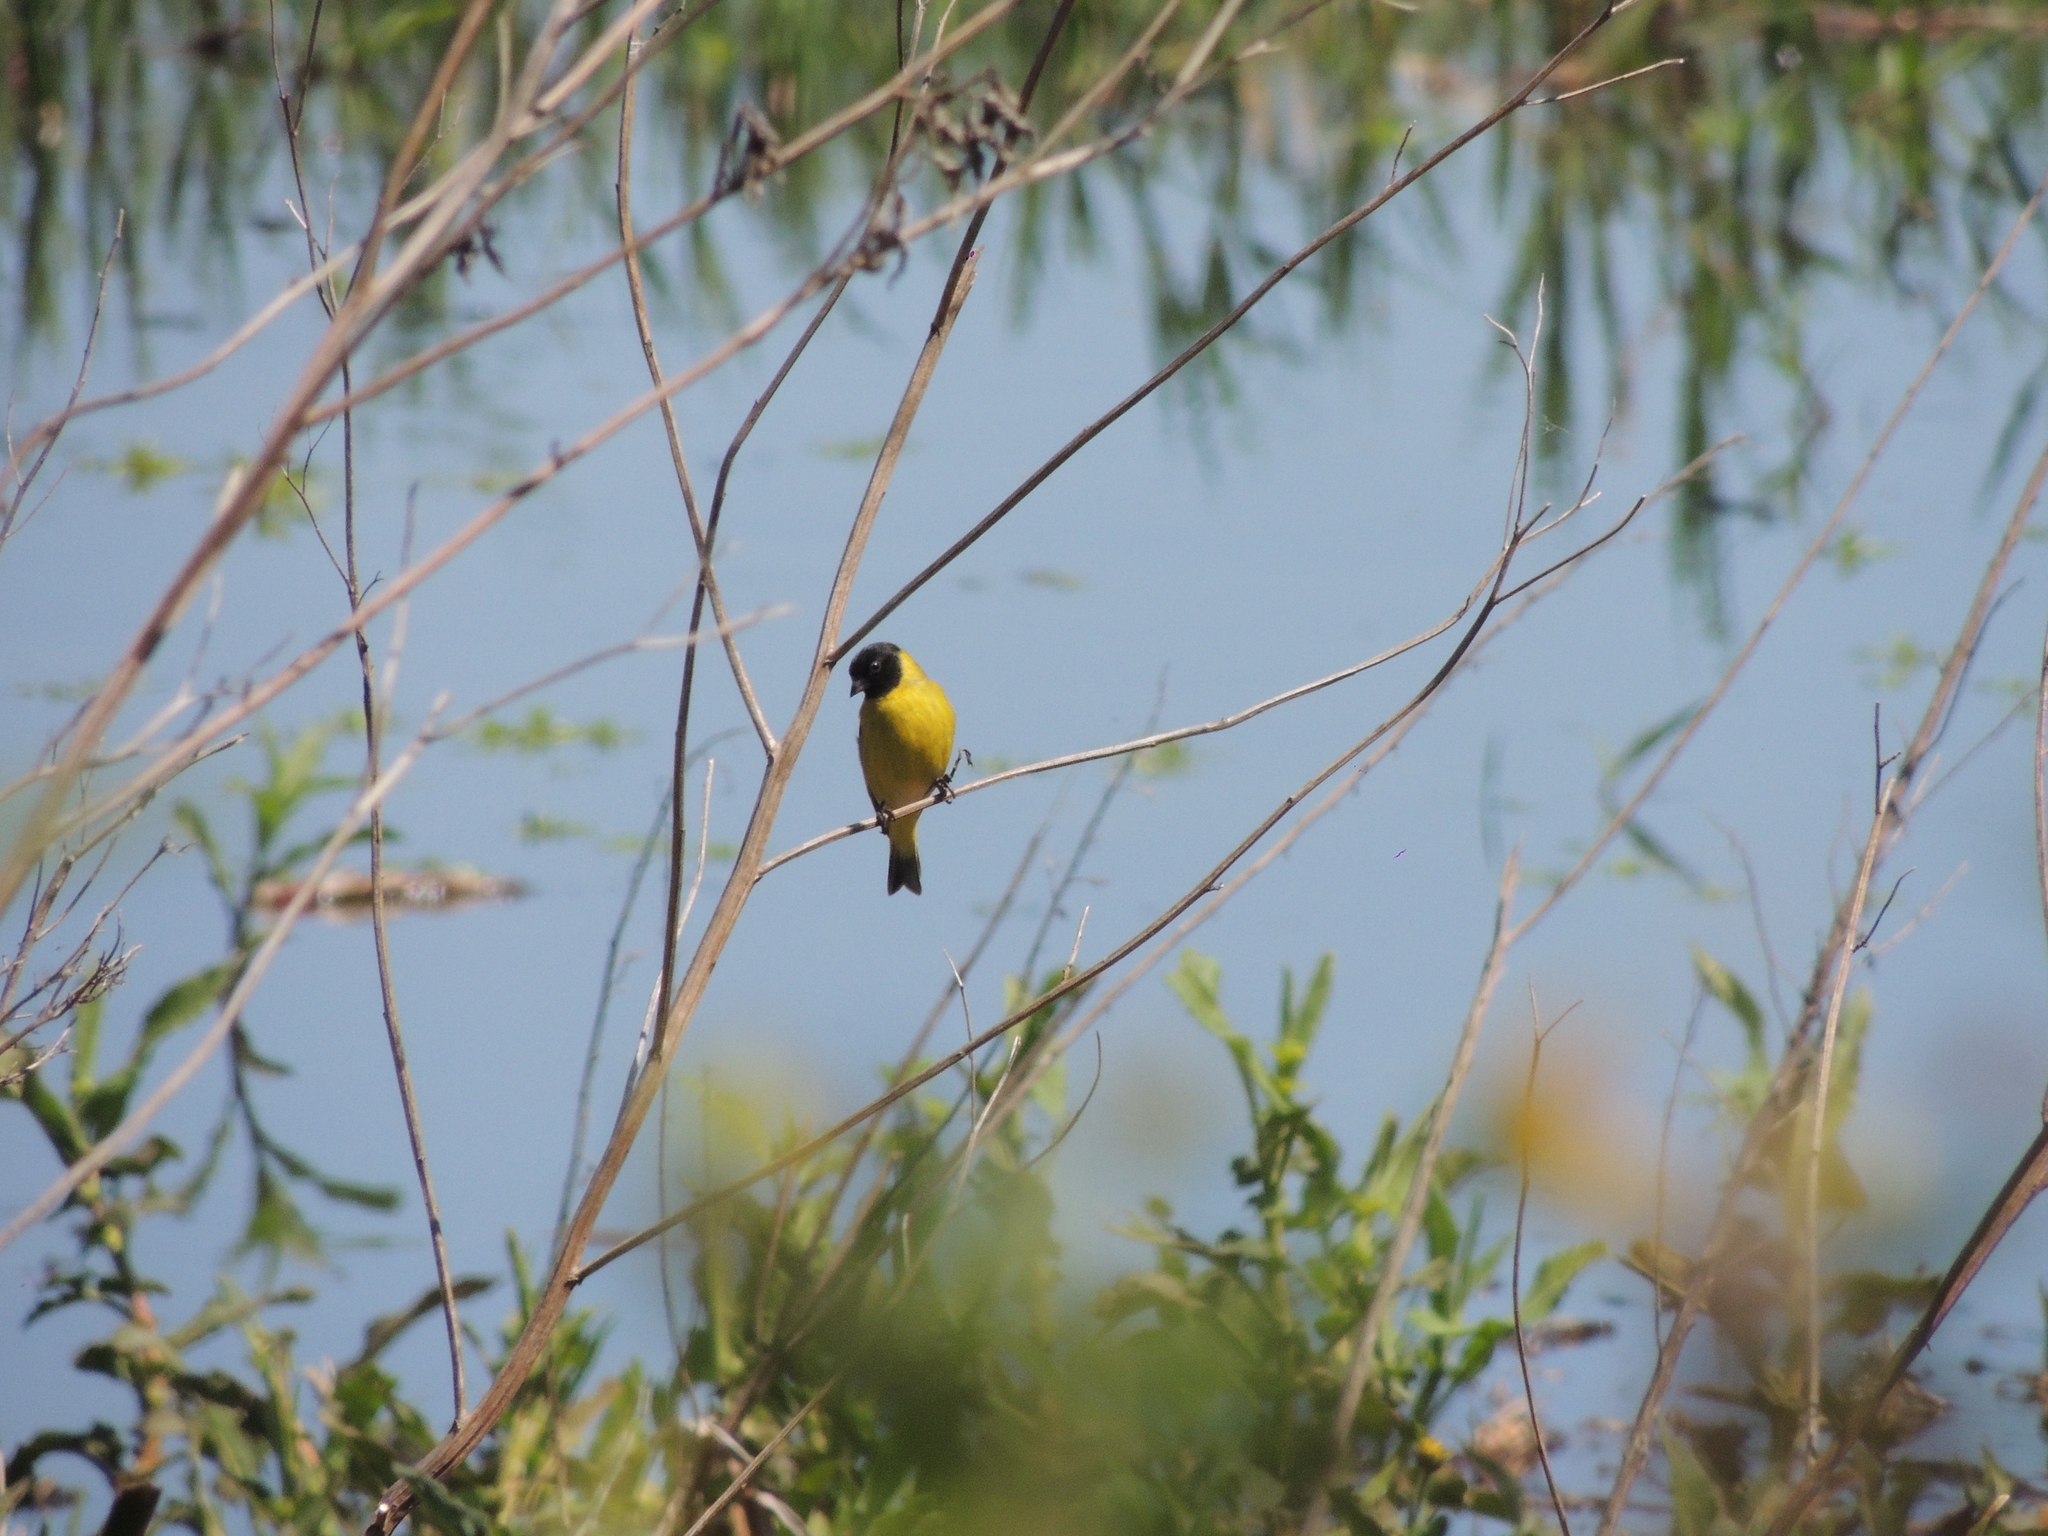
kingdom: Animalia
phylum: Chordata
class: Aves
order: Passeriformes
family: Fringillidae
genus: Spinus
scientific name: Spinus magellanicus
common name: Hooded siskin
